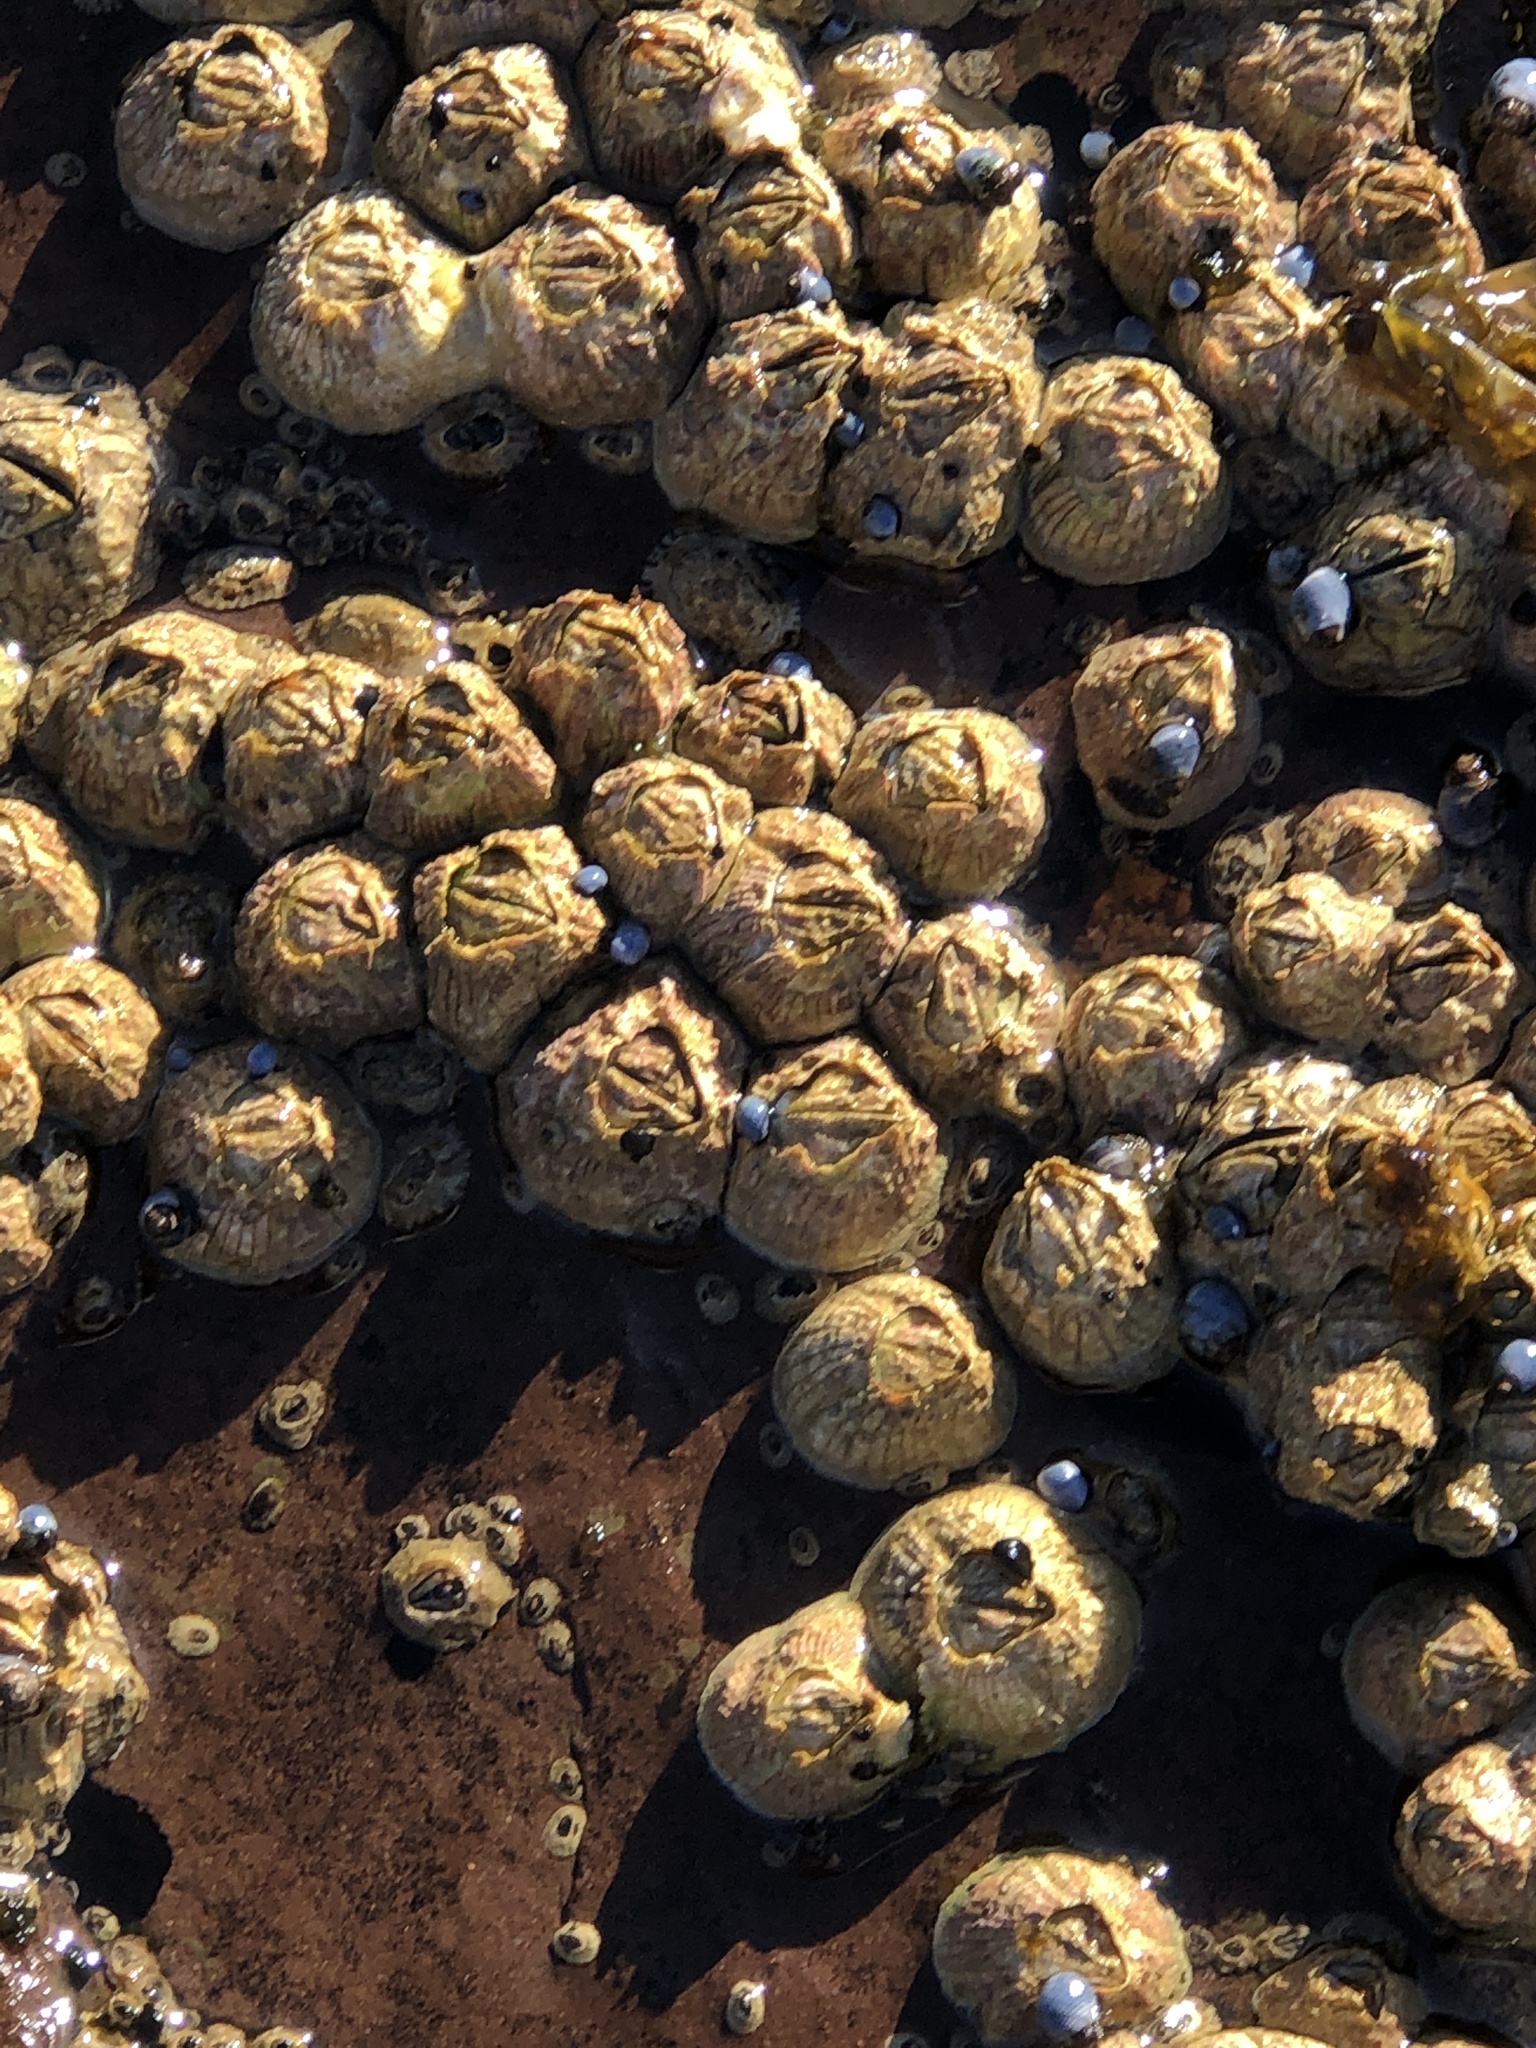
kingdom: Animalia
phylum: Arthropoda
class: Maxillopoda
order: Sessilia
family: Tetraclitidae
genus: Tesseropora
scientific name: Tesseropora rosea
